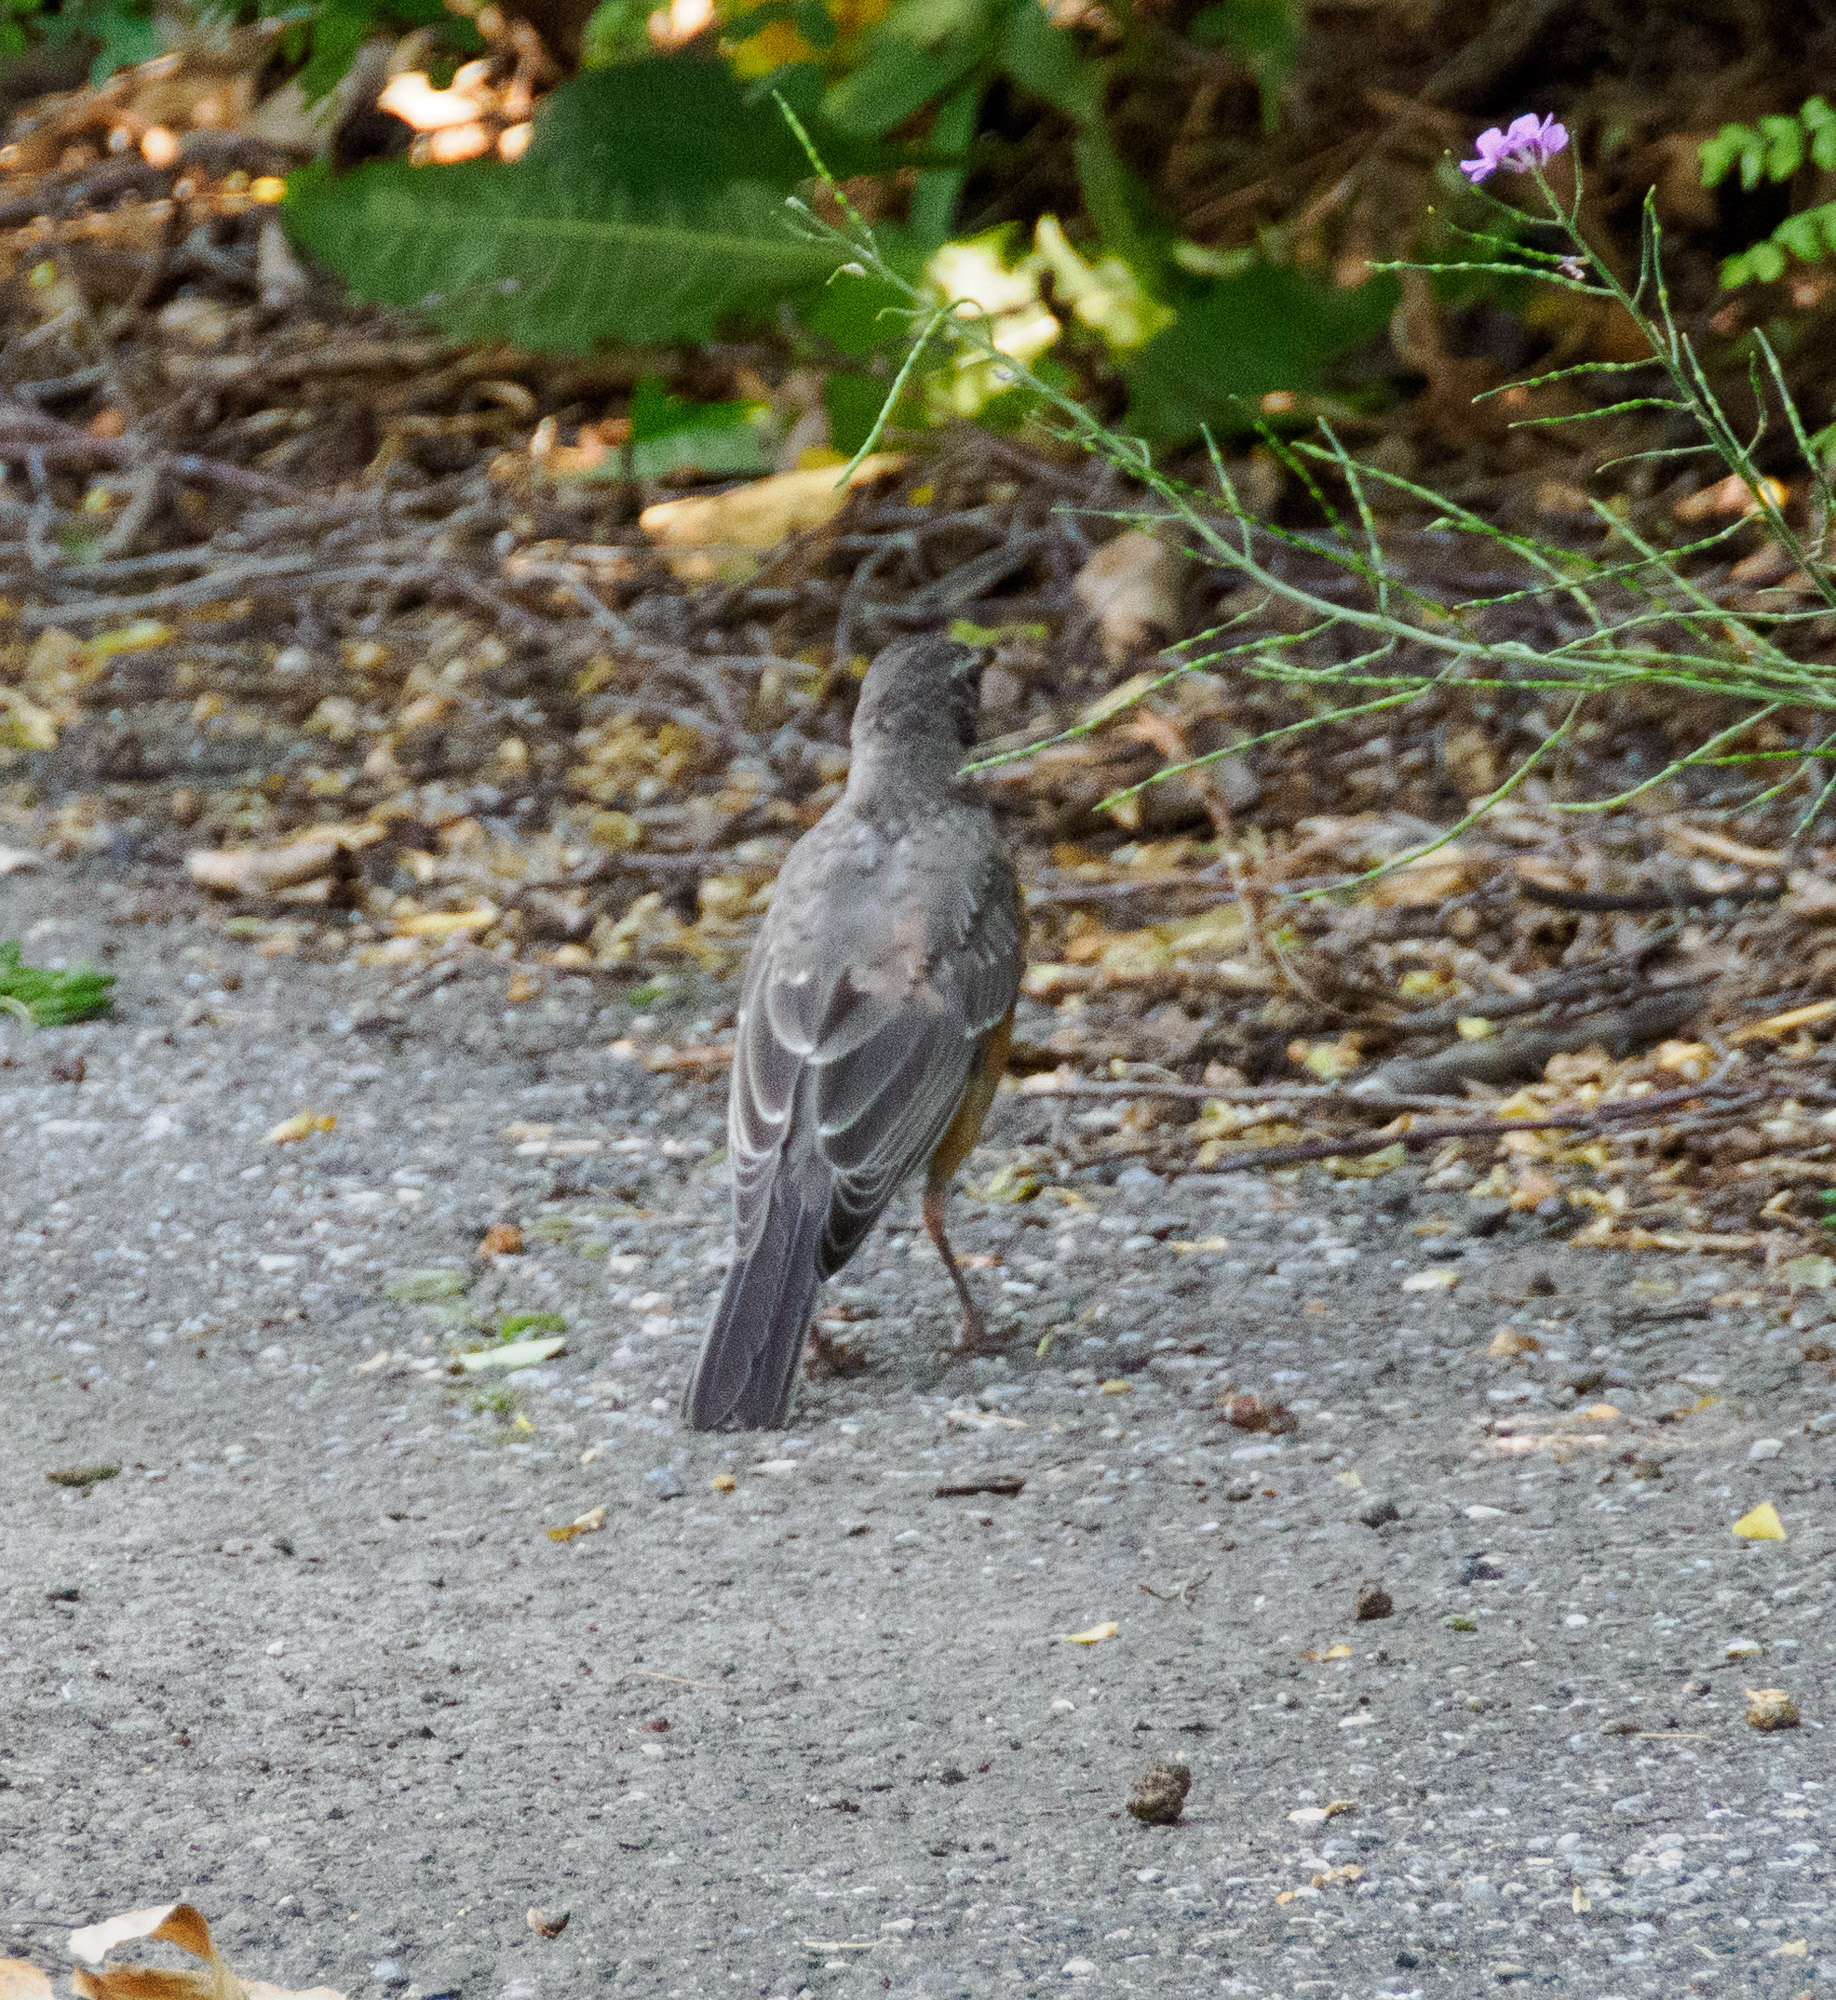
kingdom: Animalia
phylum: Chordata
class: Aves
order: Passeriformes
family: Turdidae
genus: Turdus
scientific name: Turdus migratorius
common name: American robin
